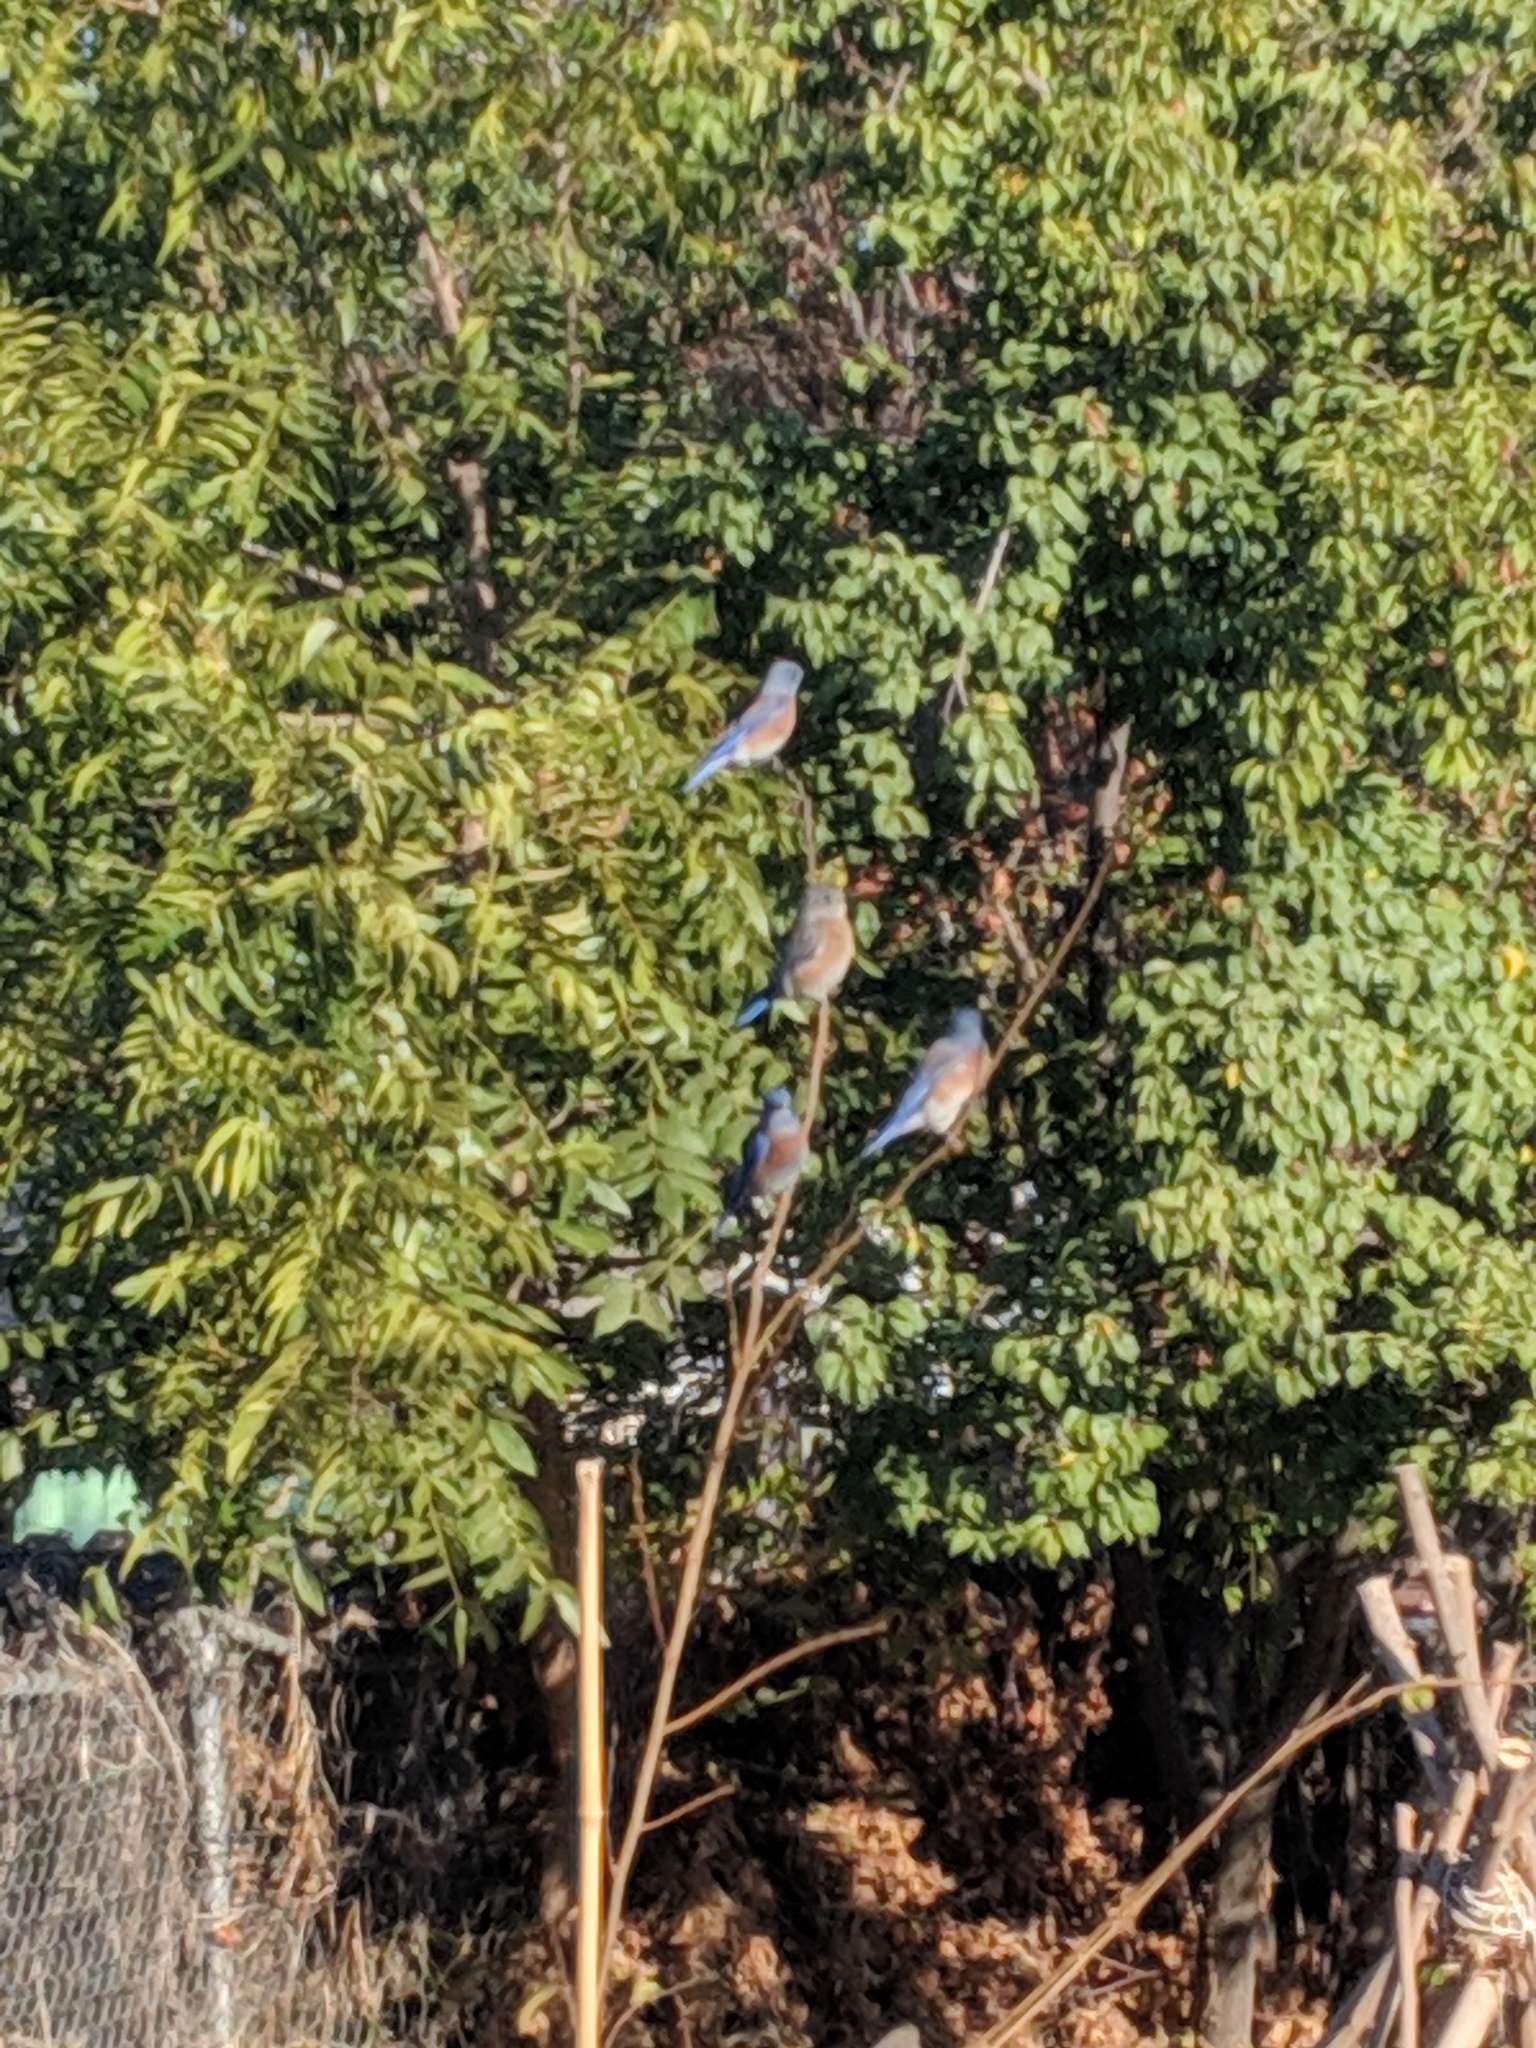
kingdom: Animalia
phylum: Chordata
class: Aves
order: Passeriformes
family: Turdidae
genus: Sialia
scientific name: Sialia mexicana
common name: Western bluebird
